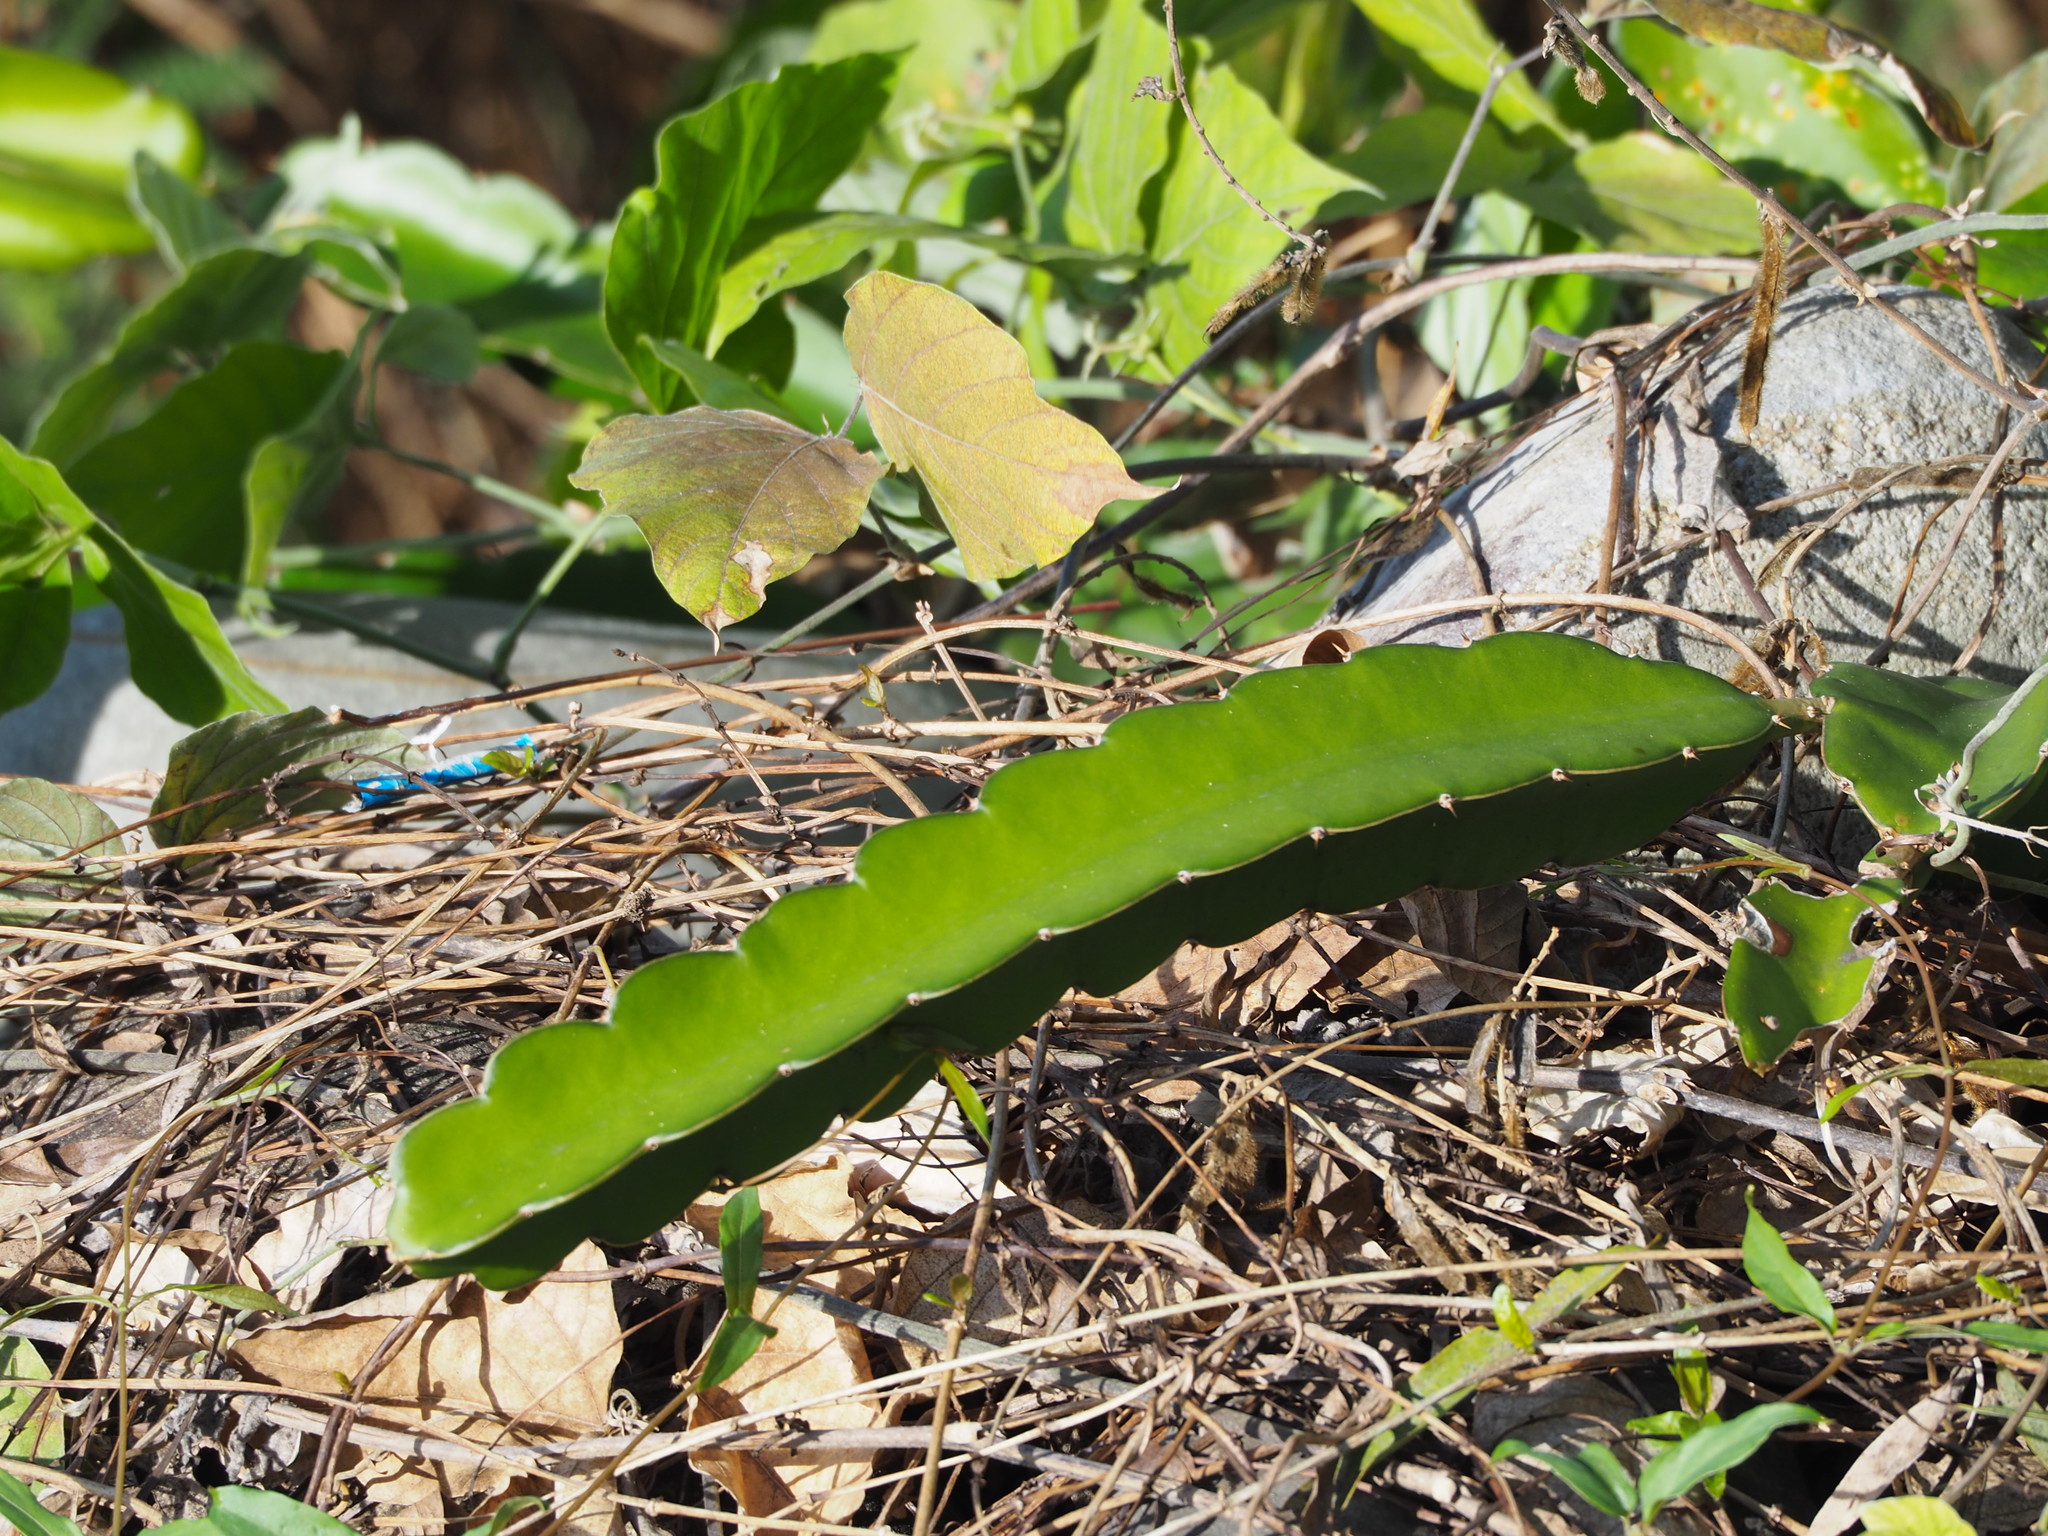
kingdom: Plantae
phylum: Tracheophyta
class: Magnoliopsida
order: Caryophyllales
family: Cactaceae
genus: Selenicereus
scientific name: Selenicereus undatus
